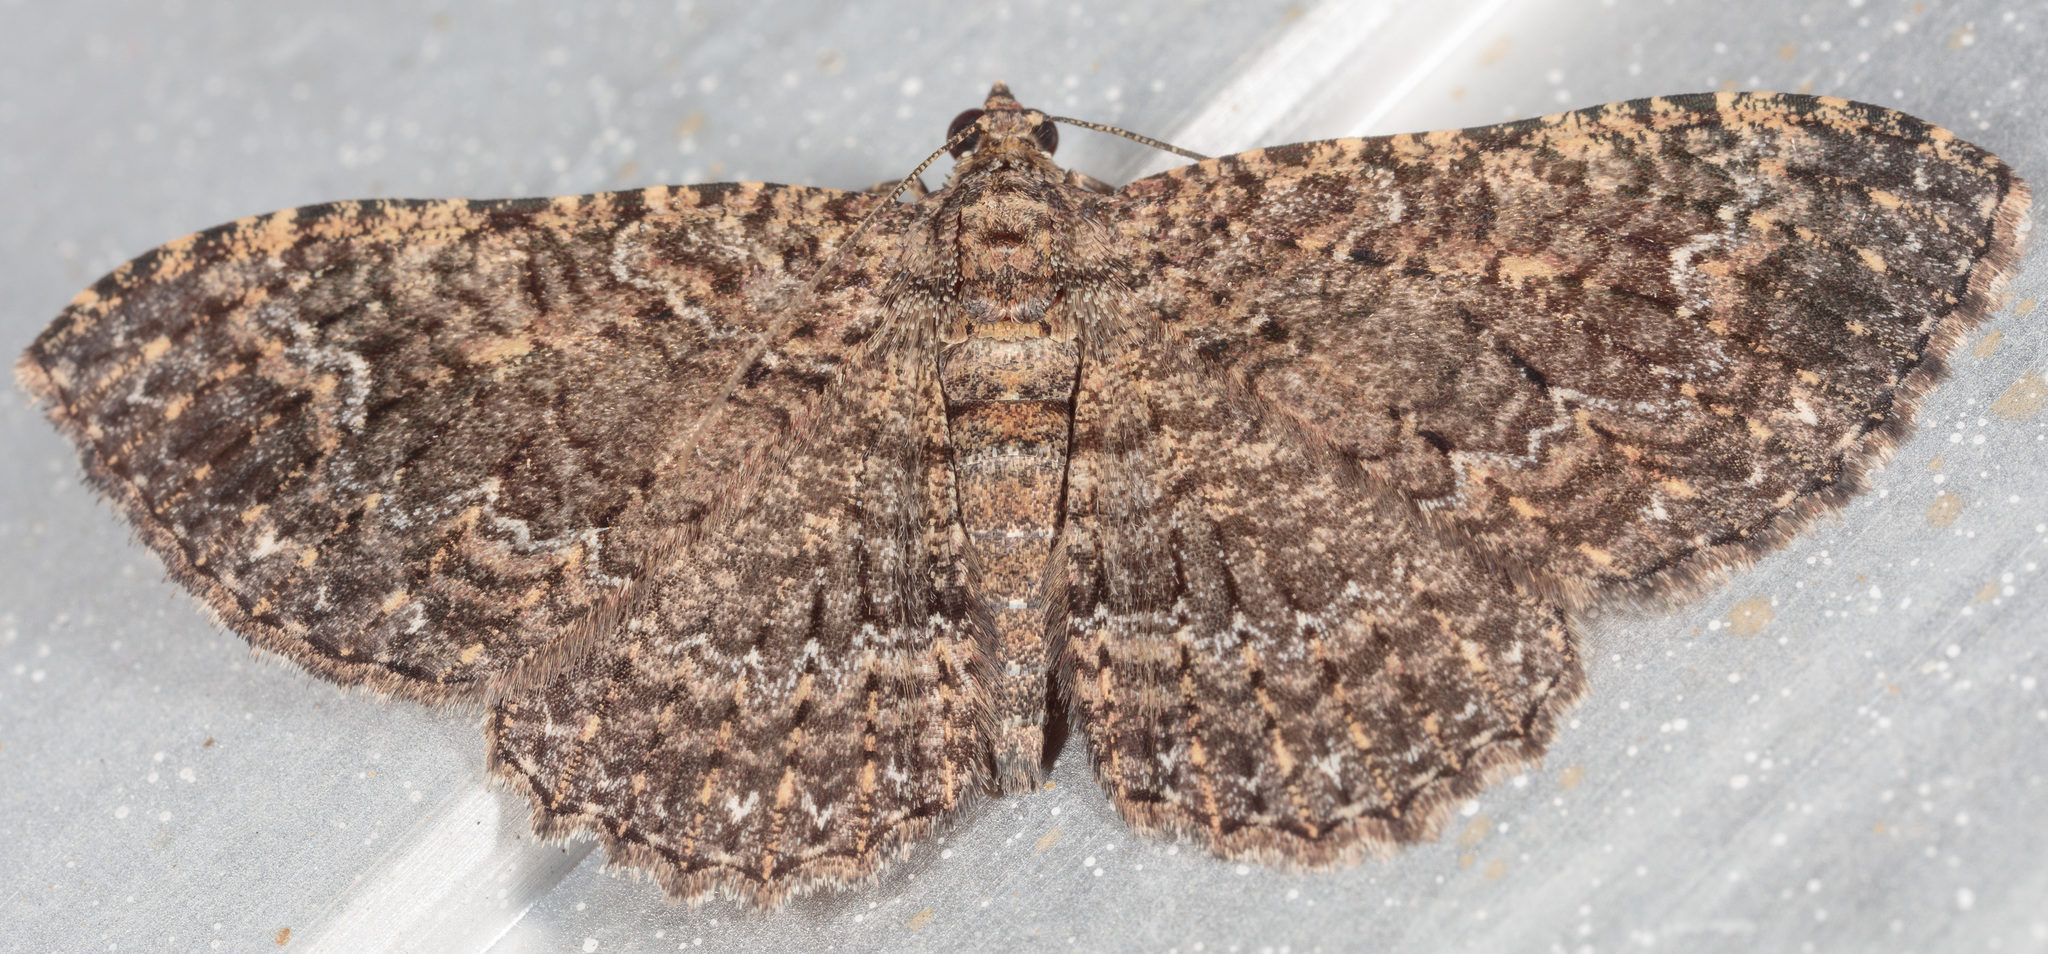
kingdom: Animalia
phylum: Arthropoda
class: Insecta
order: Lepidoptera
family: Geometridae
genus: Disclisioprocta
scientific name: Disclisioprocta stellata
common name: Somber carpet
